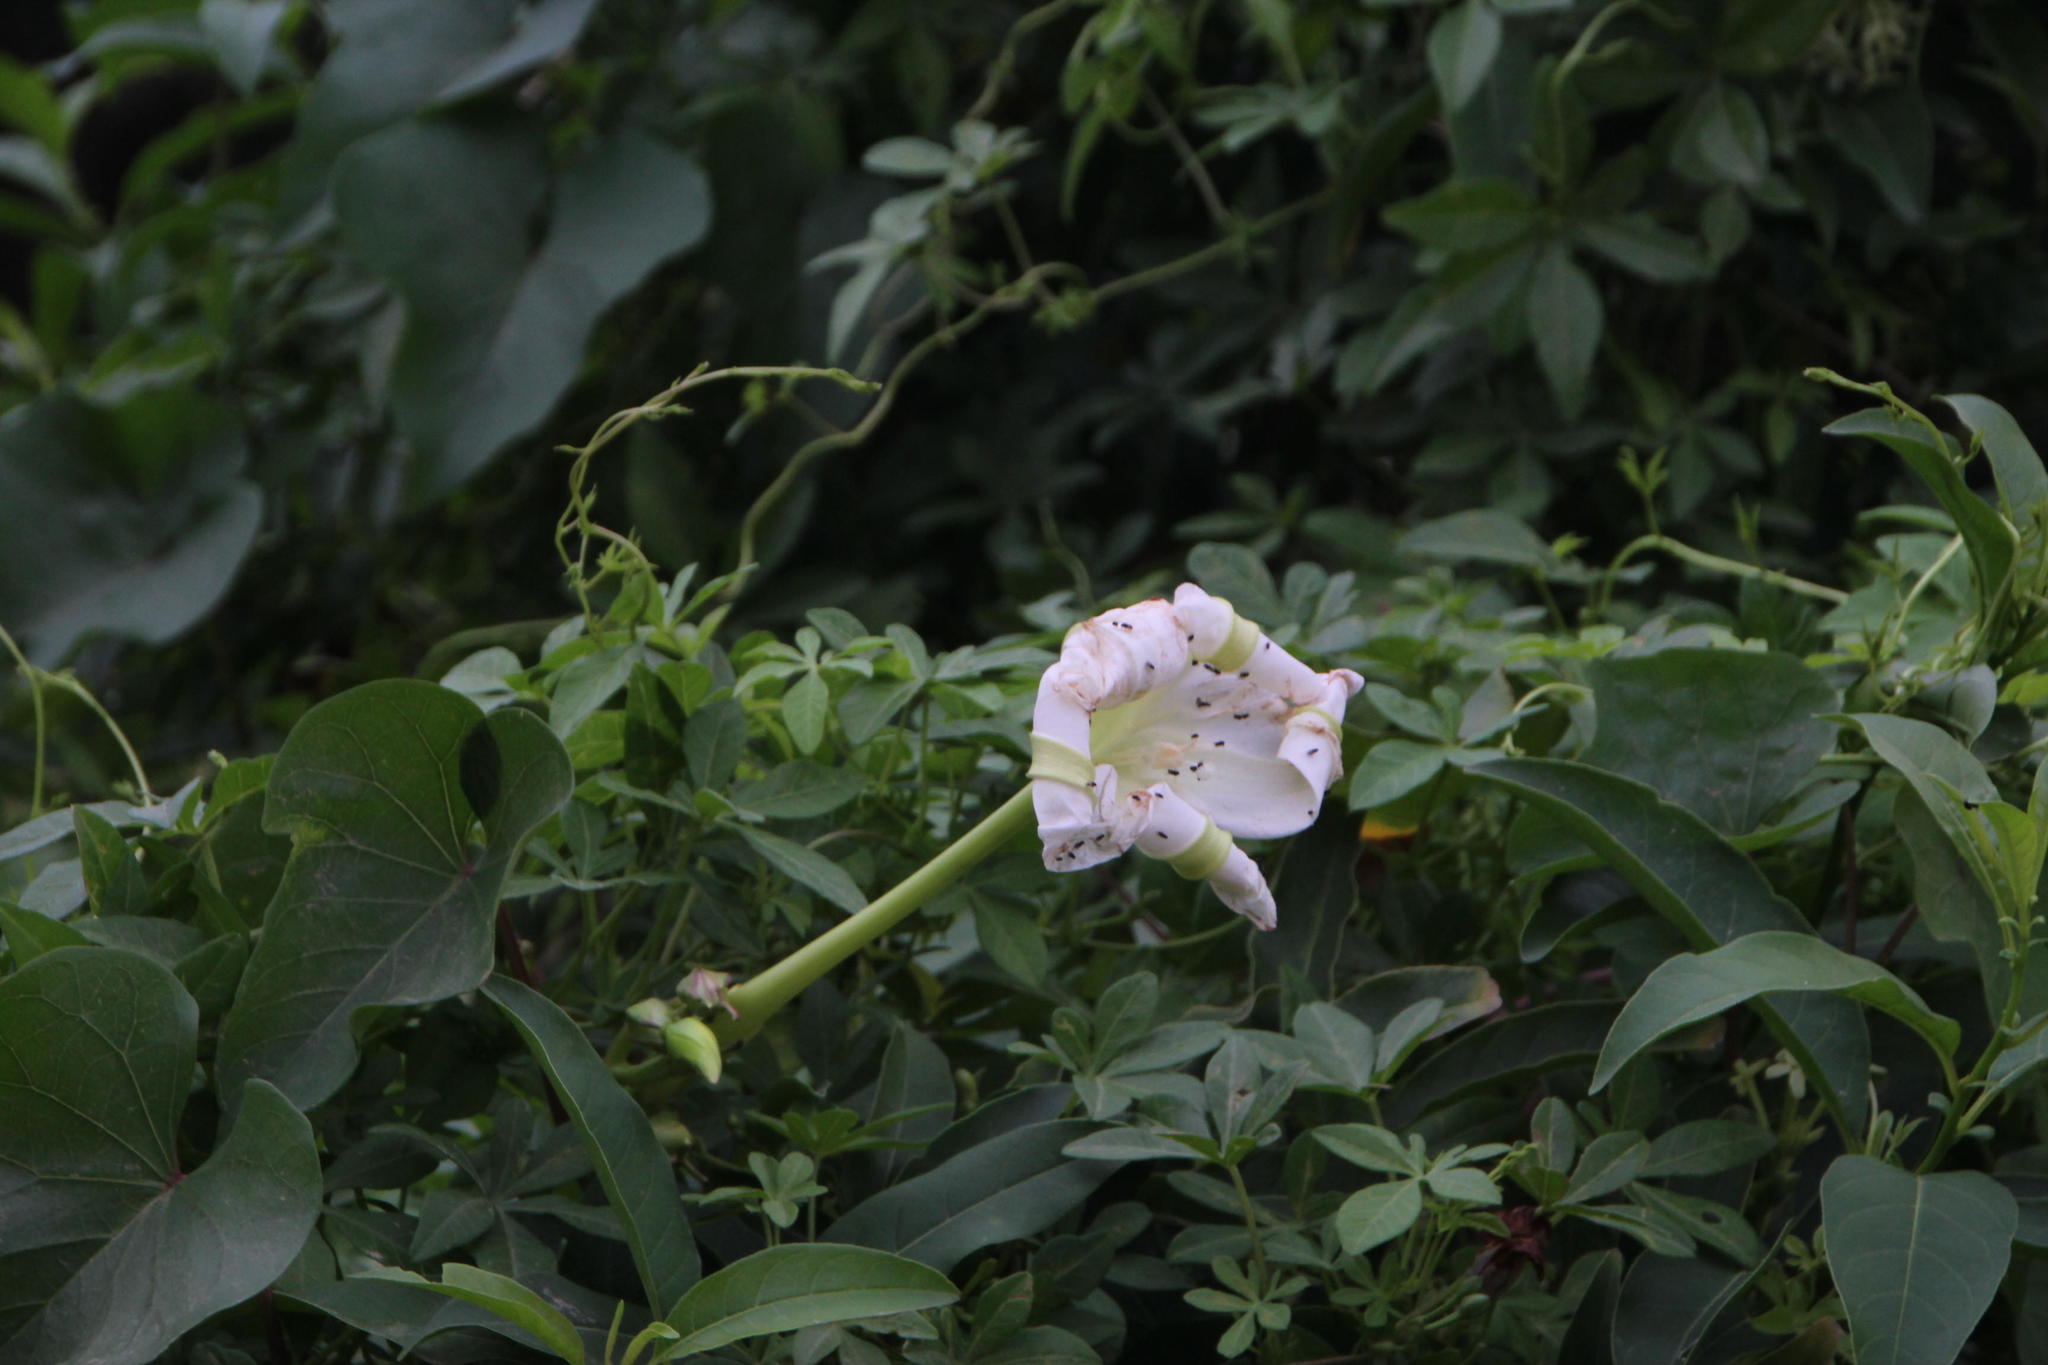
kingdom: Plantae
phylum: Tracheophyta
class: Magnoliopsida
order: Solanales
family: Convolvulaceae
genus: Ipomoea
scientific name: Ipomoea alba
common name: Moonflower
